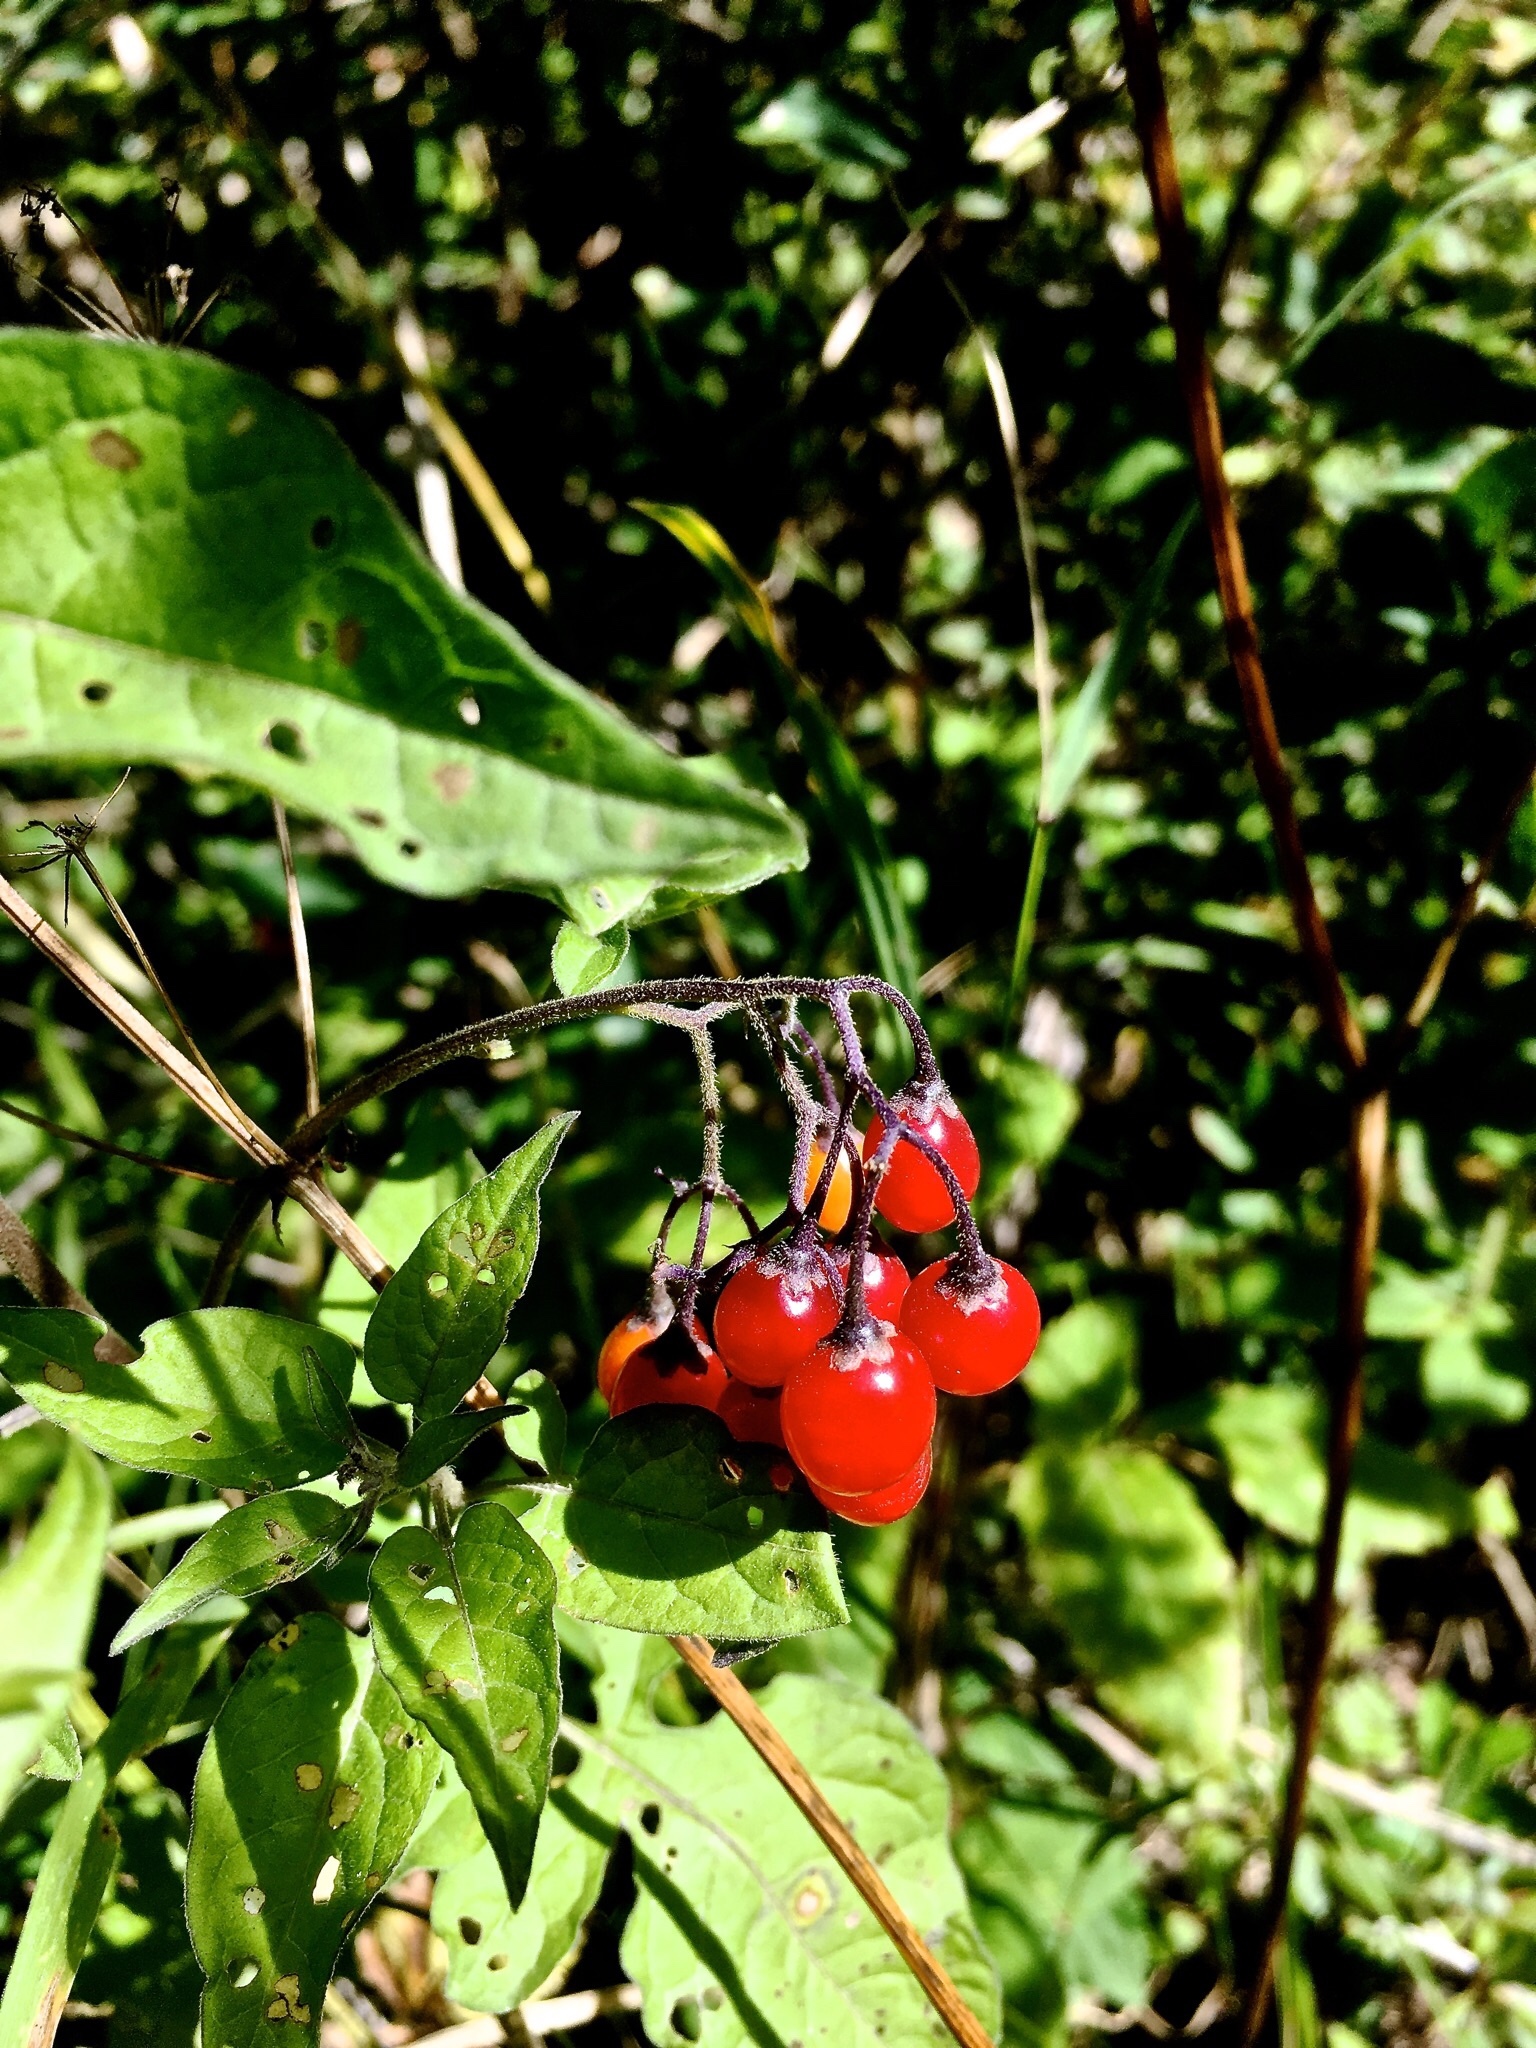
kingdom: Plantae
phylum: Tracheophyta
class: Magnoliopsida
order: Solanales
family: Solanaceae
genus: Solanum
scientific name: Solanum dulcamara
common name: Climbing nightshade
